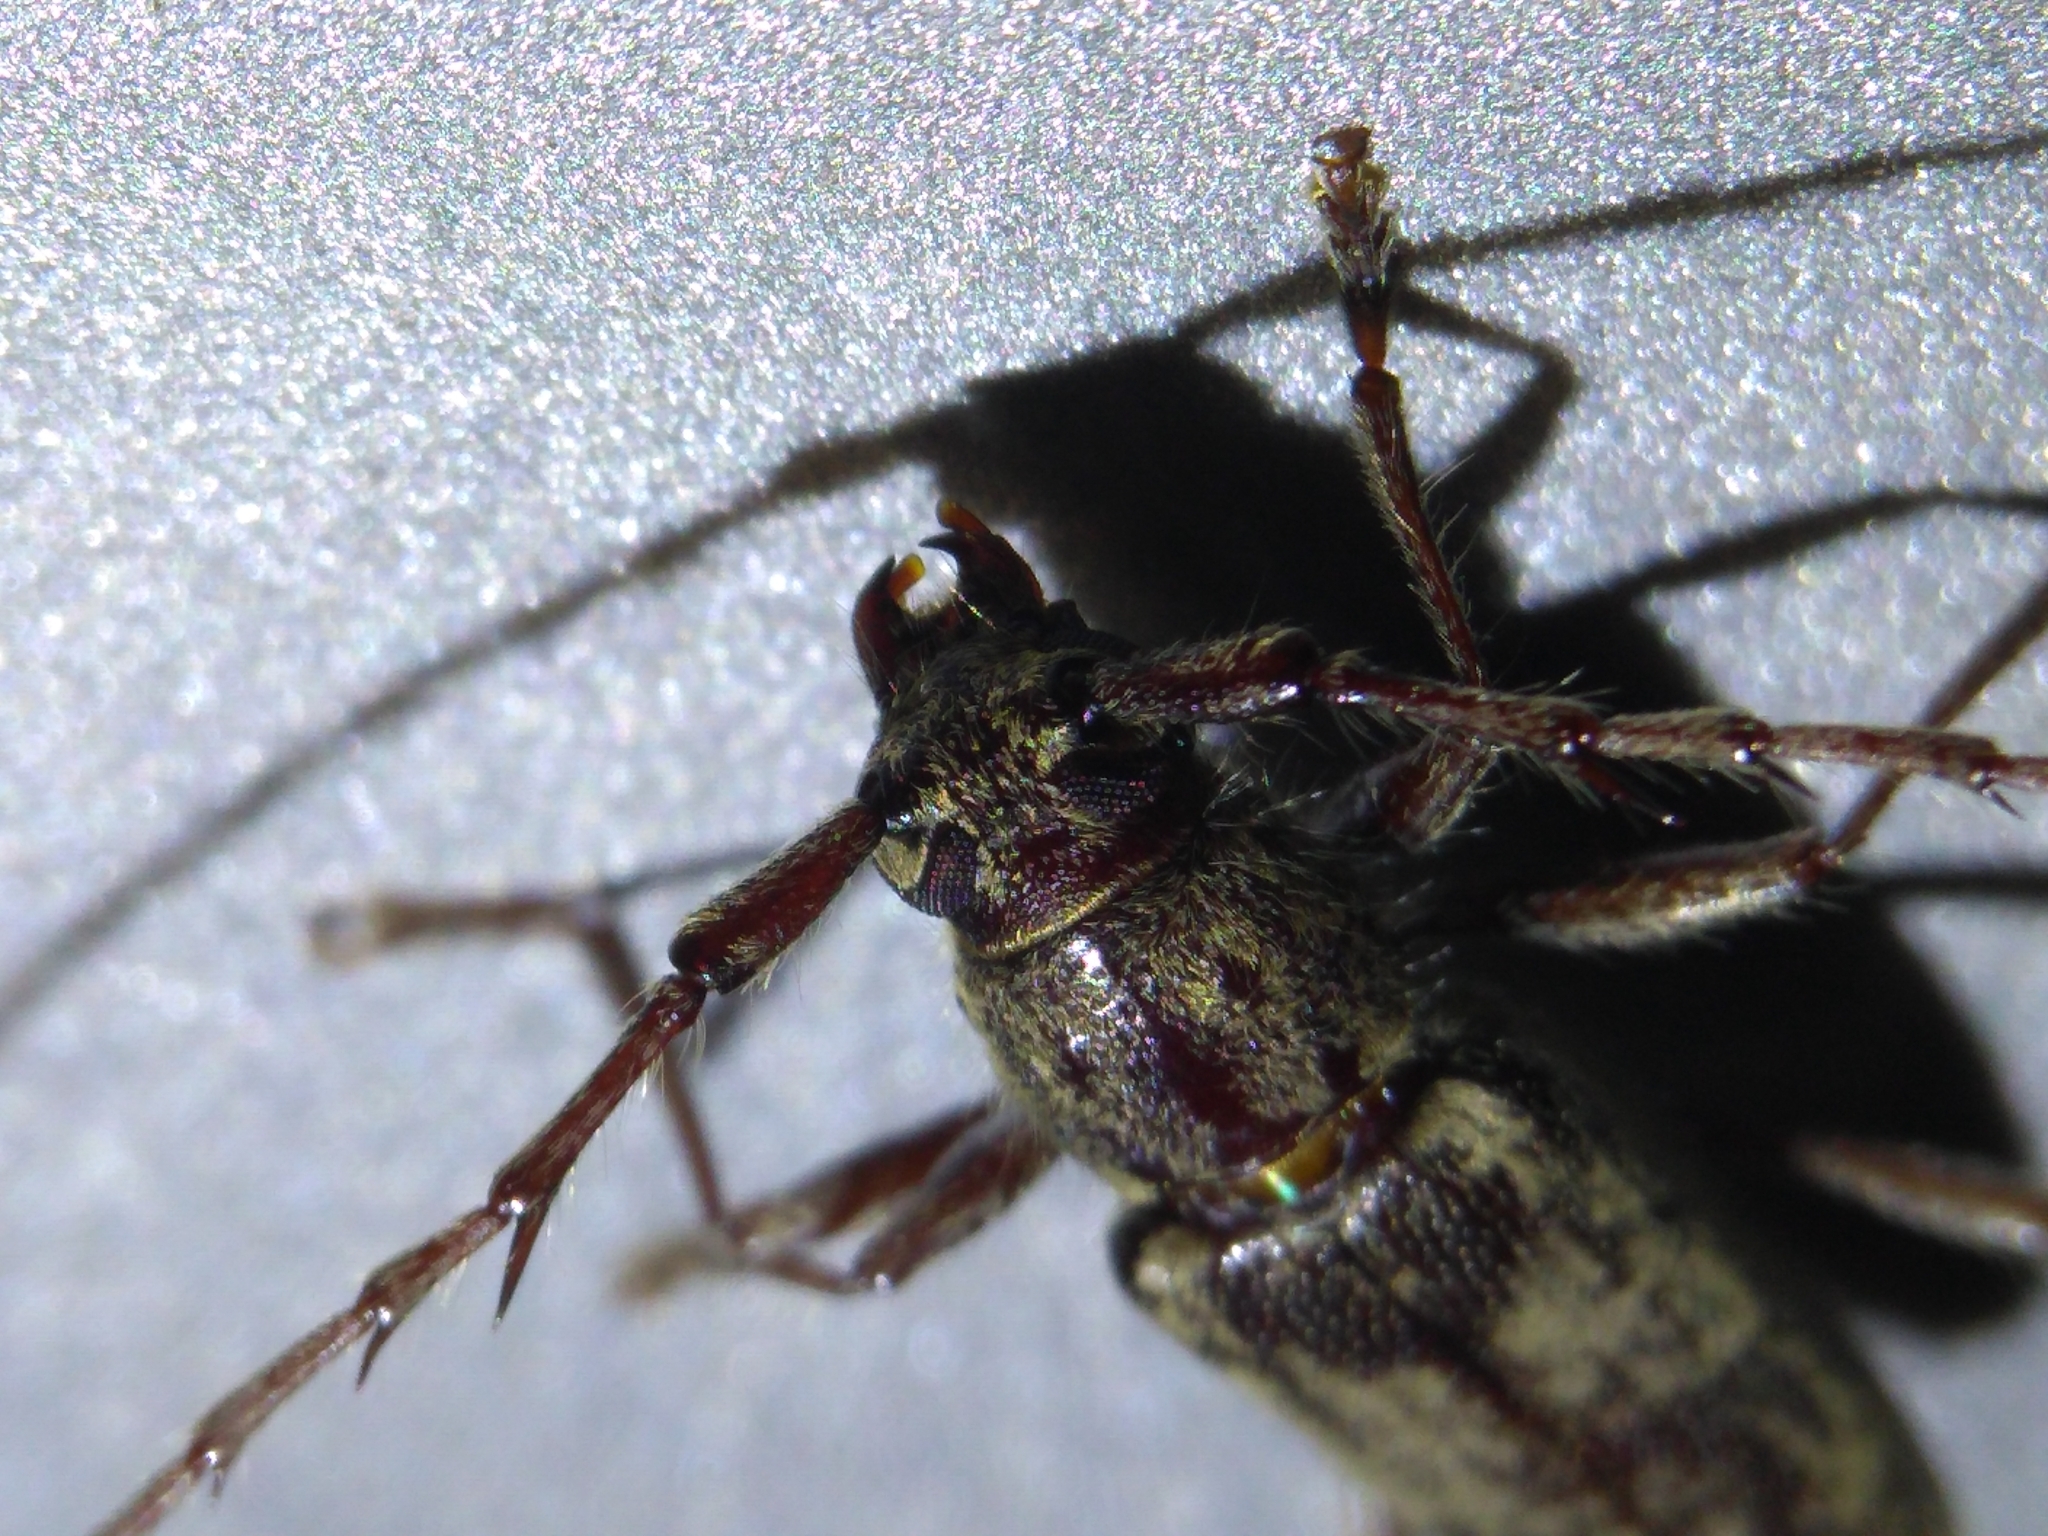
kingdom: Animalia
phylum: Arthropoda
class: Insecta
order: Coleoptera
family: Cerambycidae
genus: Elaphidion
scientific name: Elaphidion mucronatum
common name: Spined oak borer
